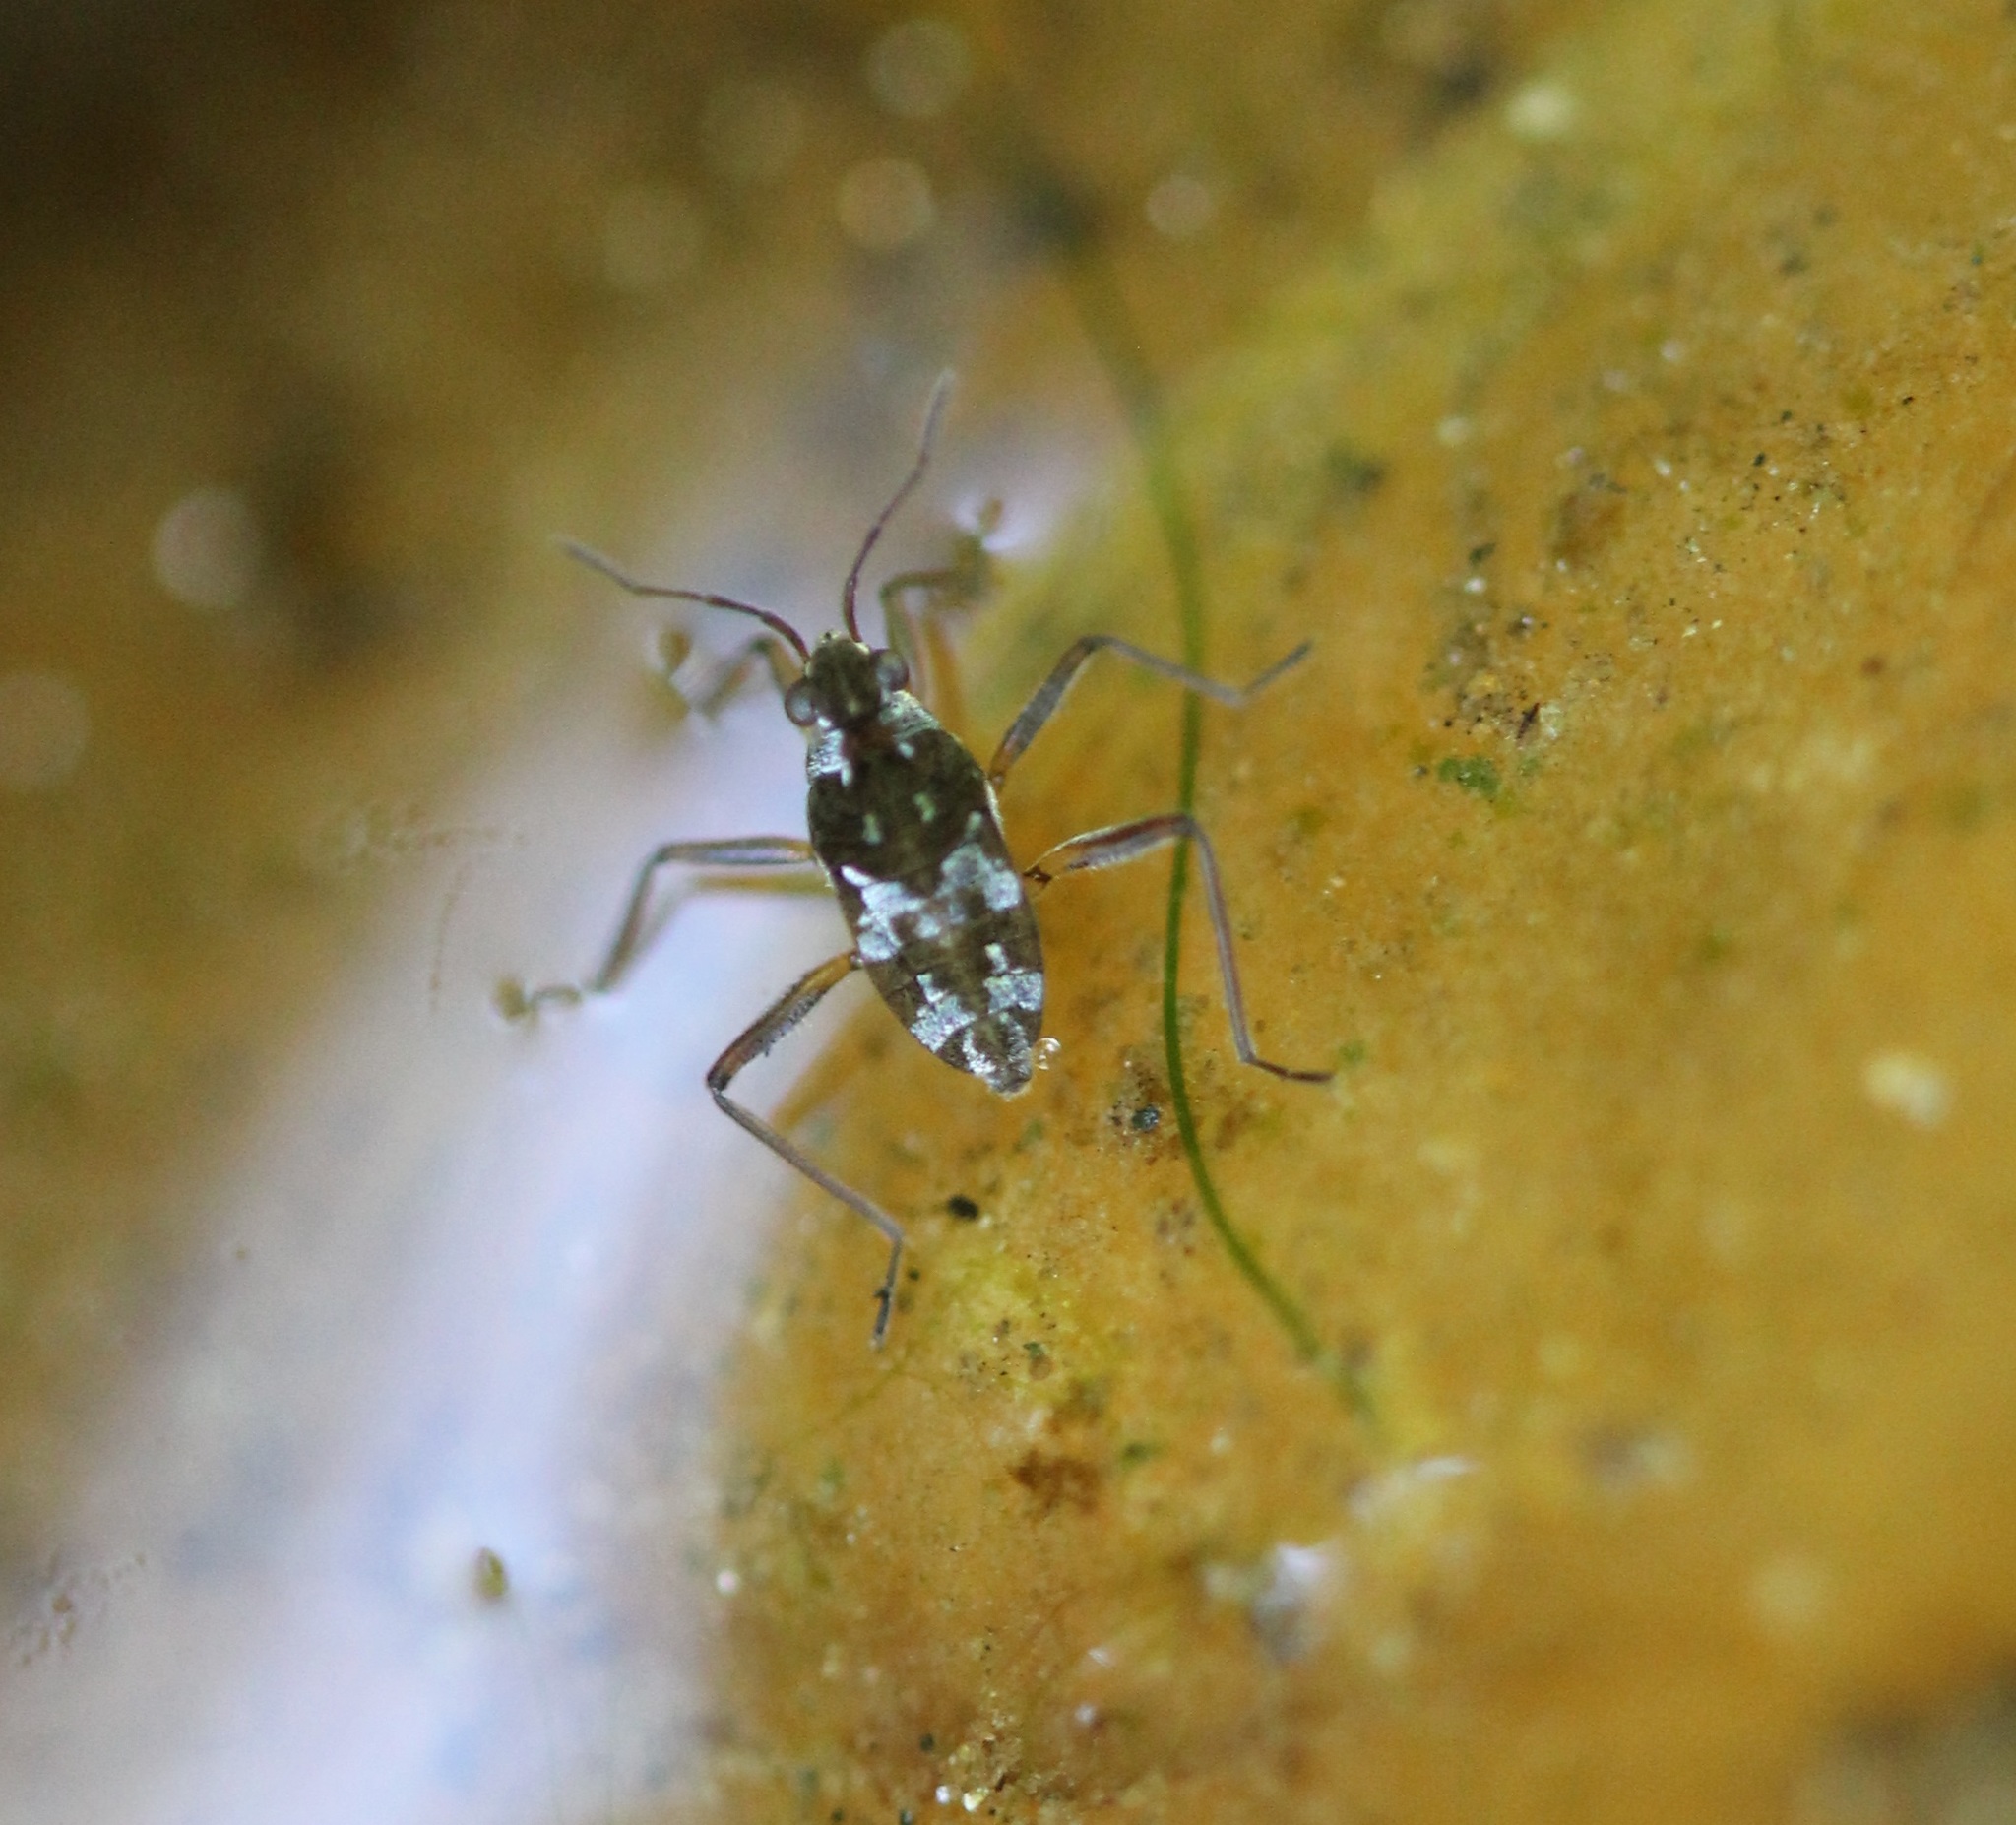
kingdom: Animalia
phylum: Arthropoda
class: Insecta
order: Hemiptera
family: Veliidae
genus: Microvelia
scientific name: Microvelia americana
